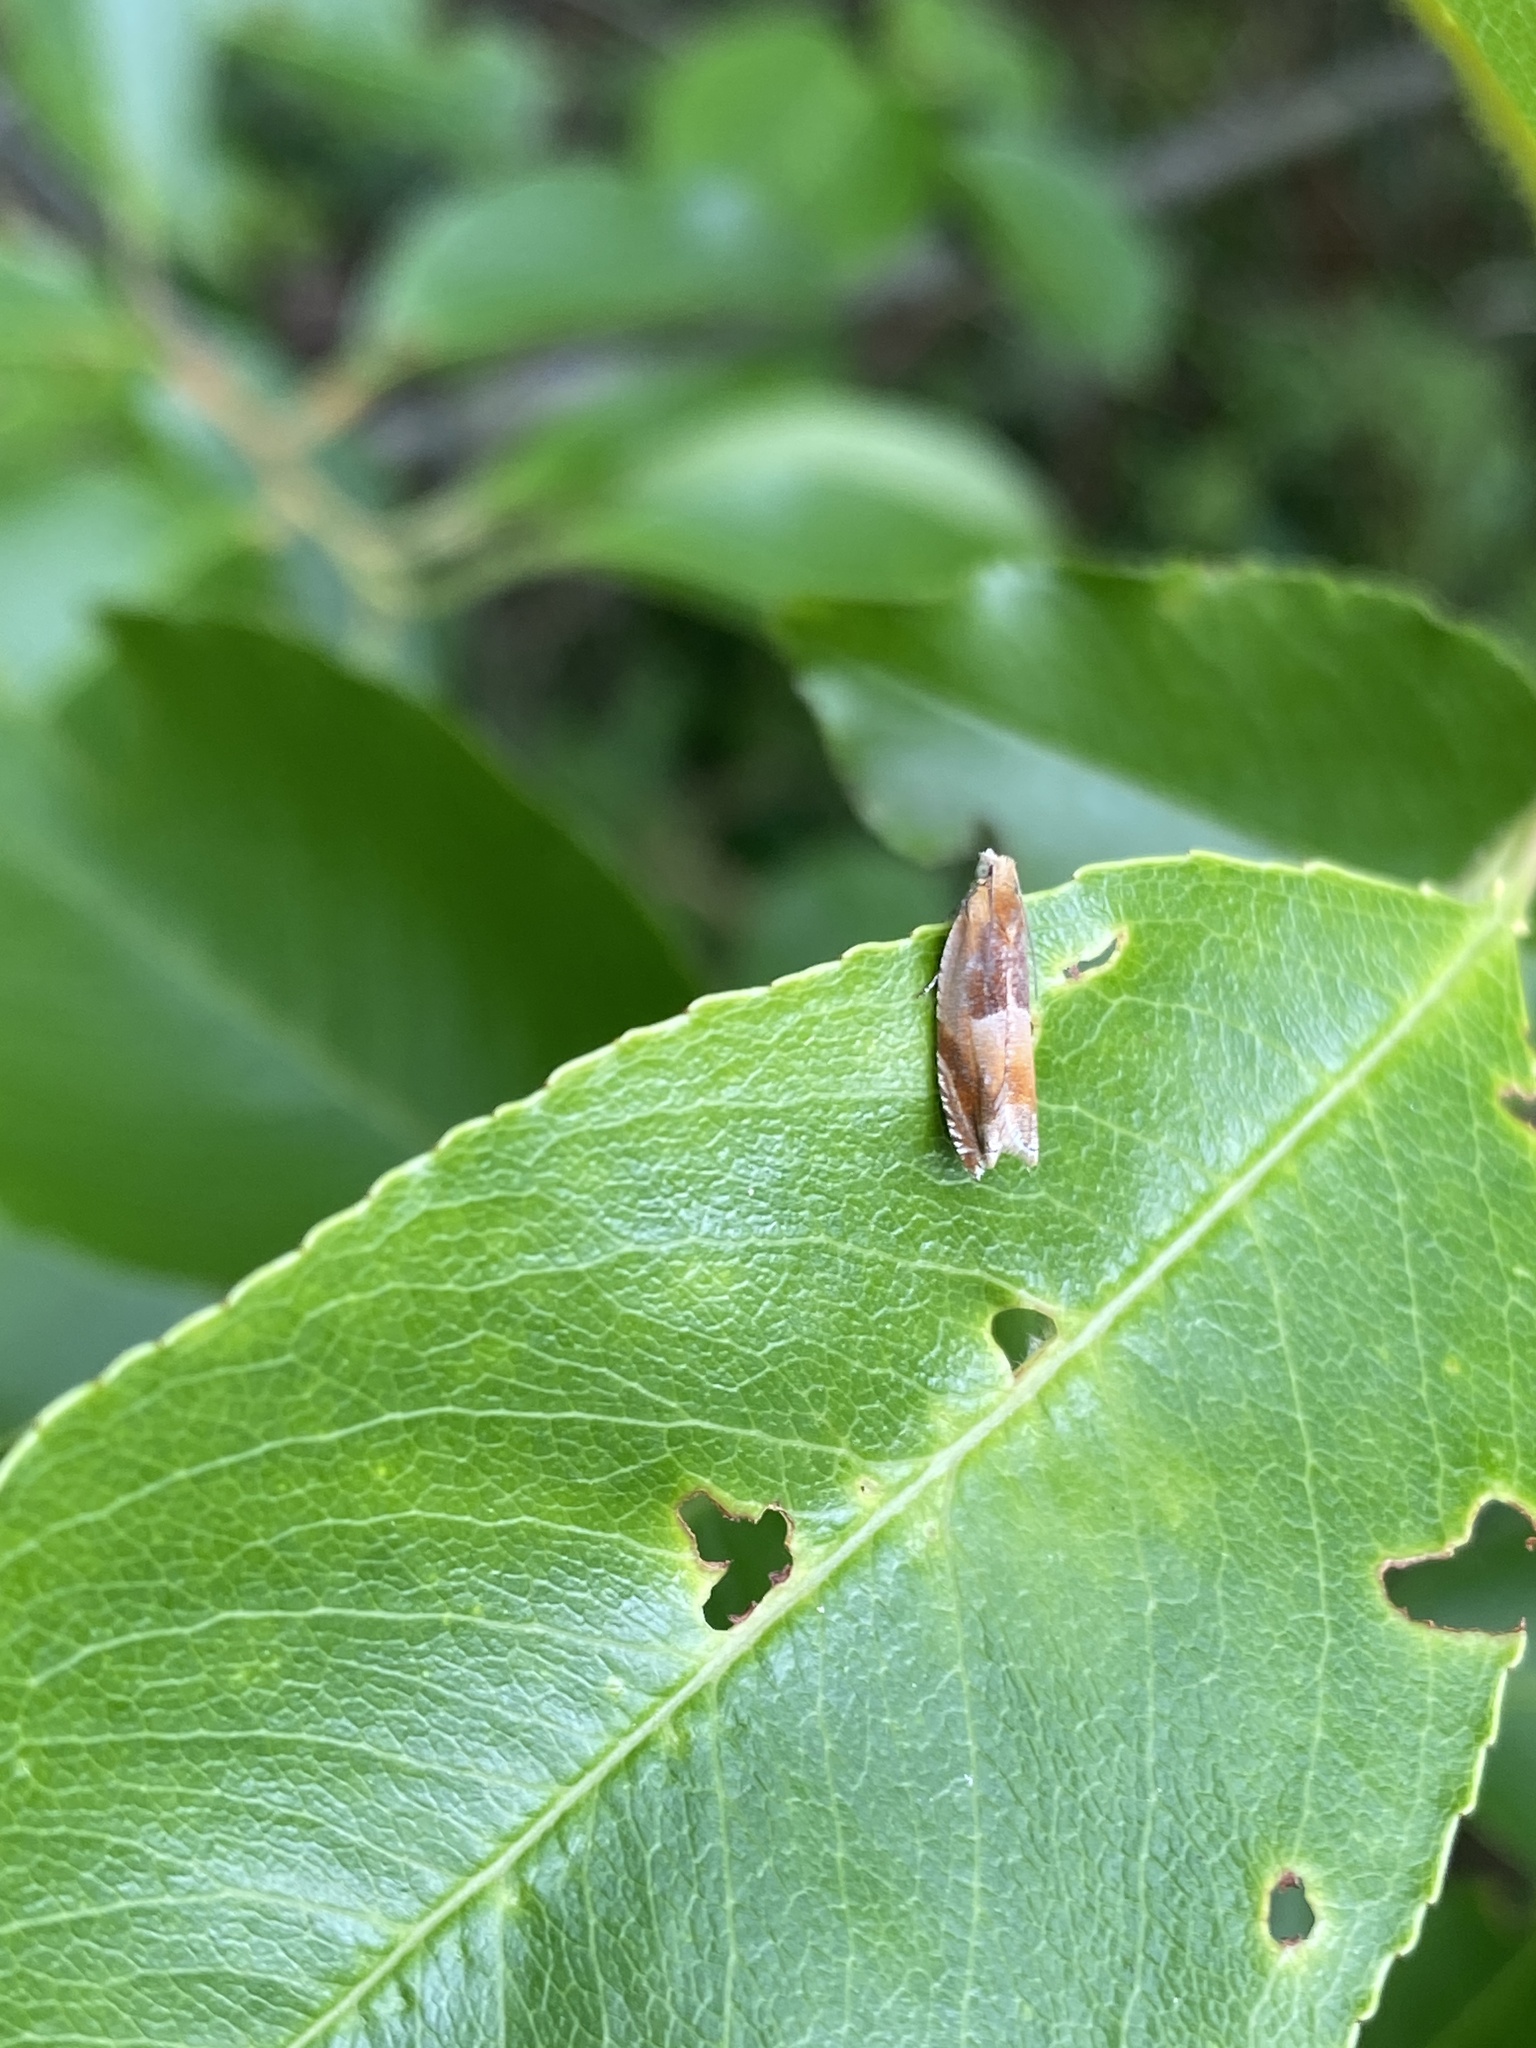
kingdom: Animalia
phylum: Arthropoda
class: Insecta
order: Lepidoptera
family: Tortricidae
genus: Ancylis
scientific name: Ancylis mitterbacheriana
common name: Red roller
